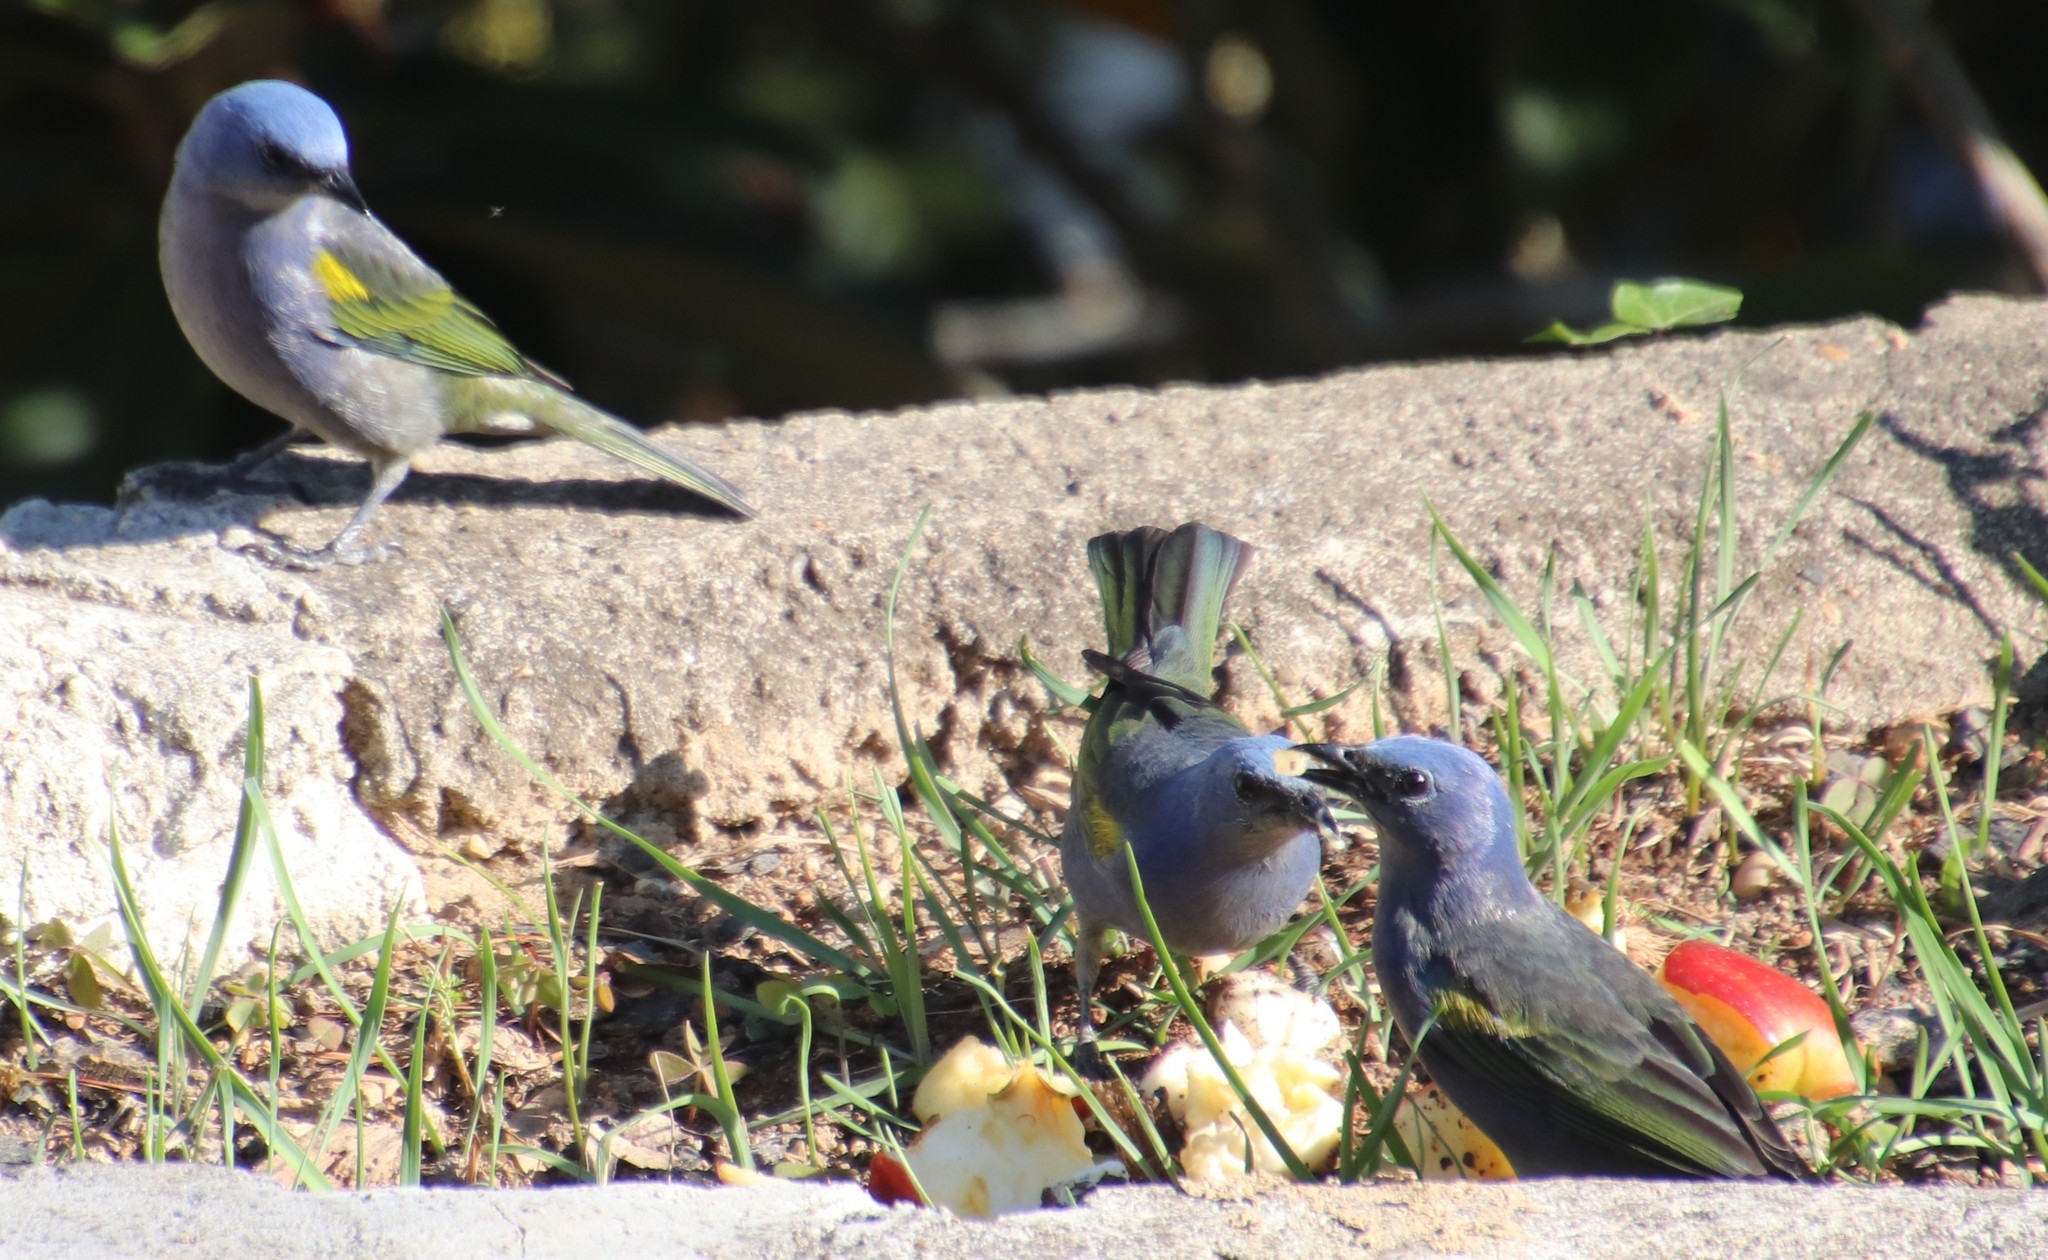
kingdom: Animalia
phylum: Chordata
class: Aves
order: Passeriformes
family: Thraupidae
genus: Thraupis
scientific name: Thraupis ornata
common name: Golden-chevroned tanager
